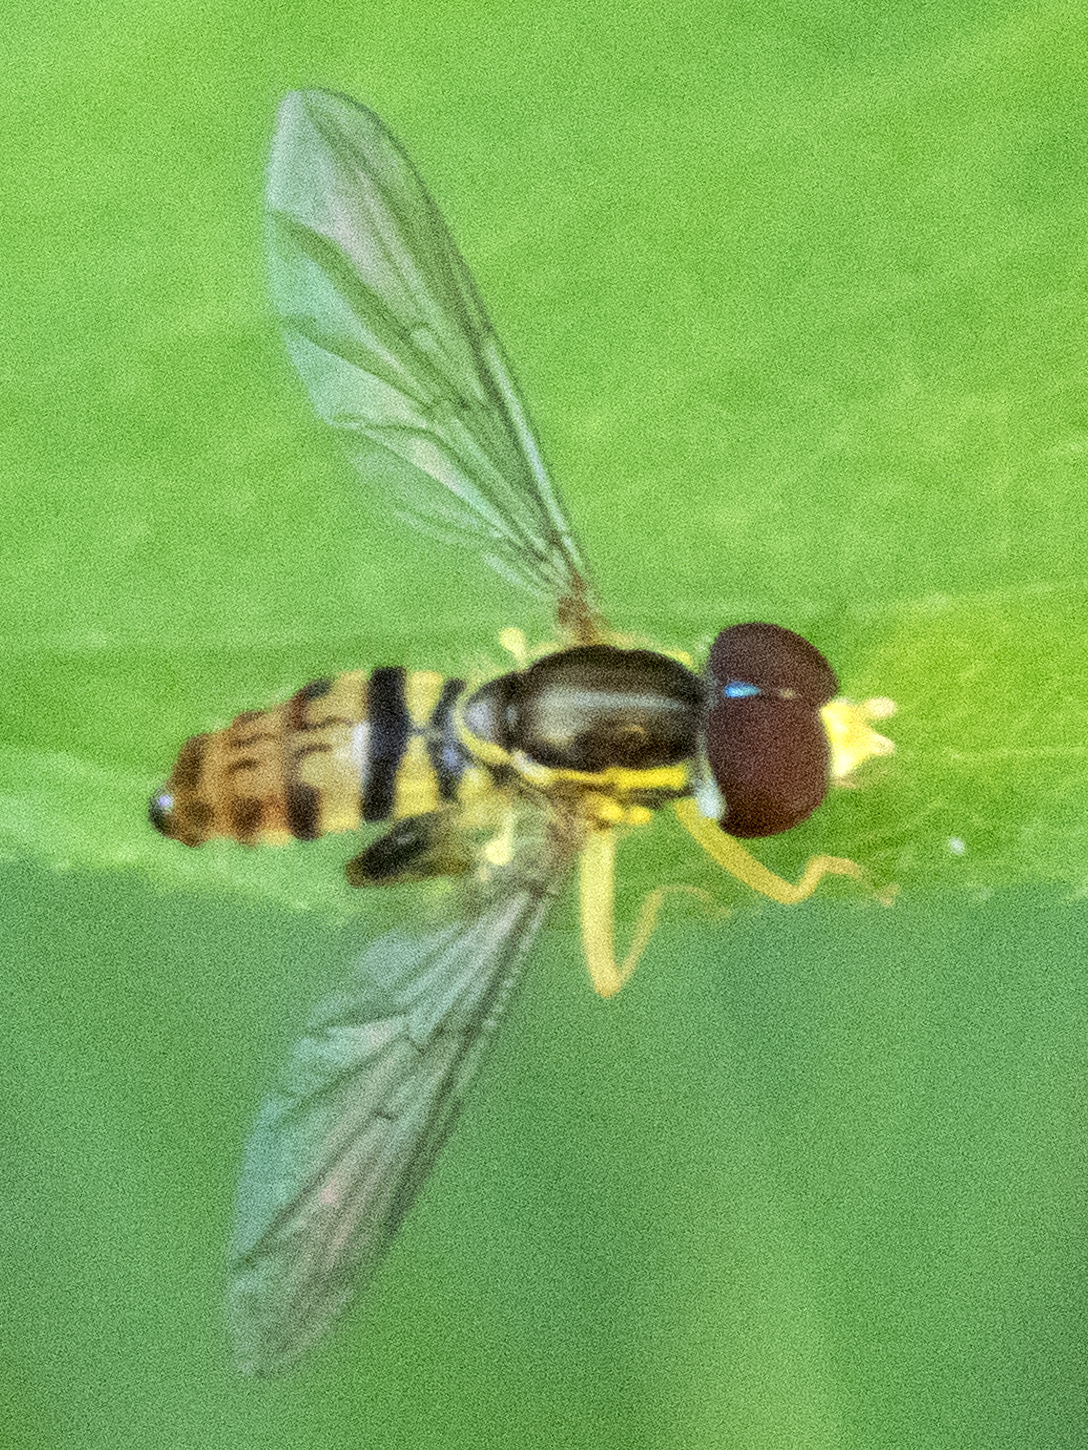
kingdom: Animalia
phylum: Arthropoda
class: Insecta
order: Diptera
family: Syrphidae
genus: Toxomerus
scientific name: Toxomerus geminatus
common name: Eastern calligrapher
